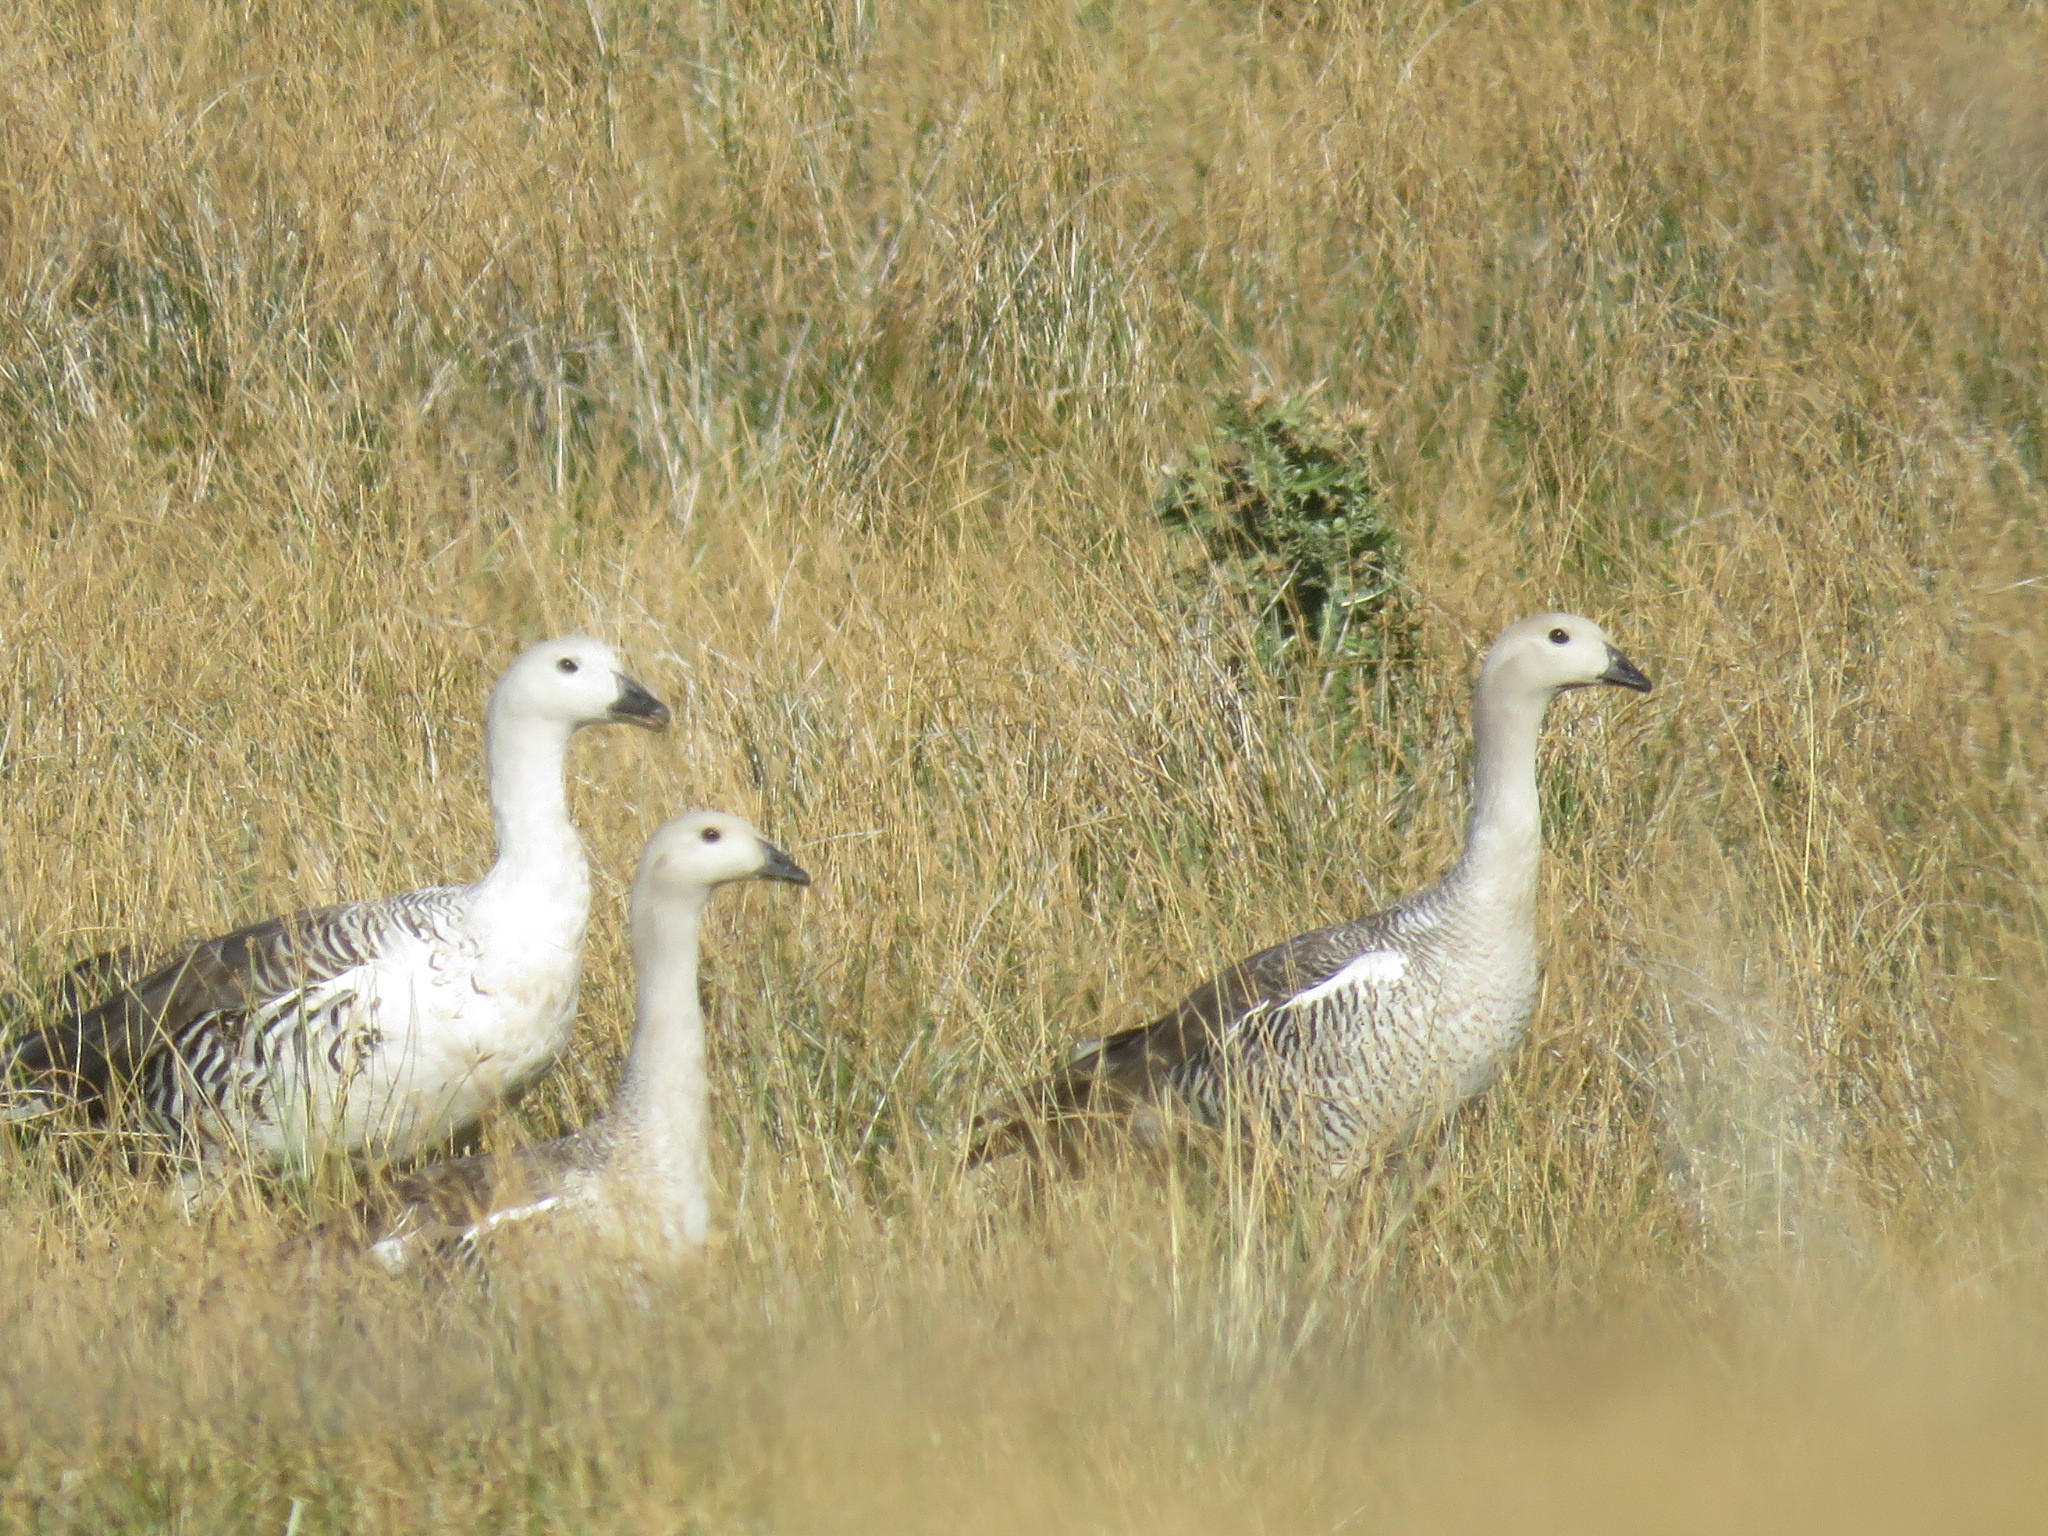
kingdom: Animalia
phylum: Chordata
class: Aves
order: Anseriformes
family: Anatidae
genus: Chloephaga
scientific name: Chloephaga picta
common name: Upland goose
